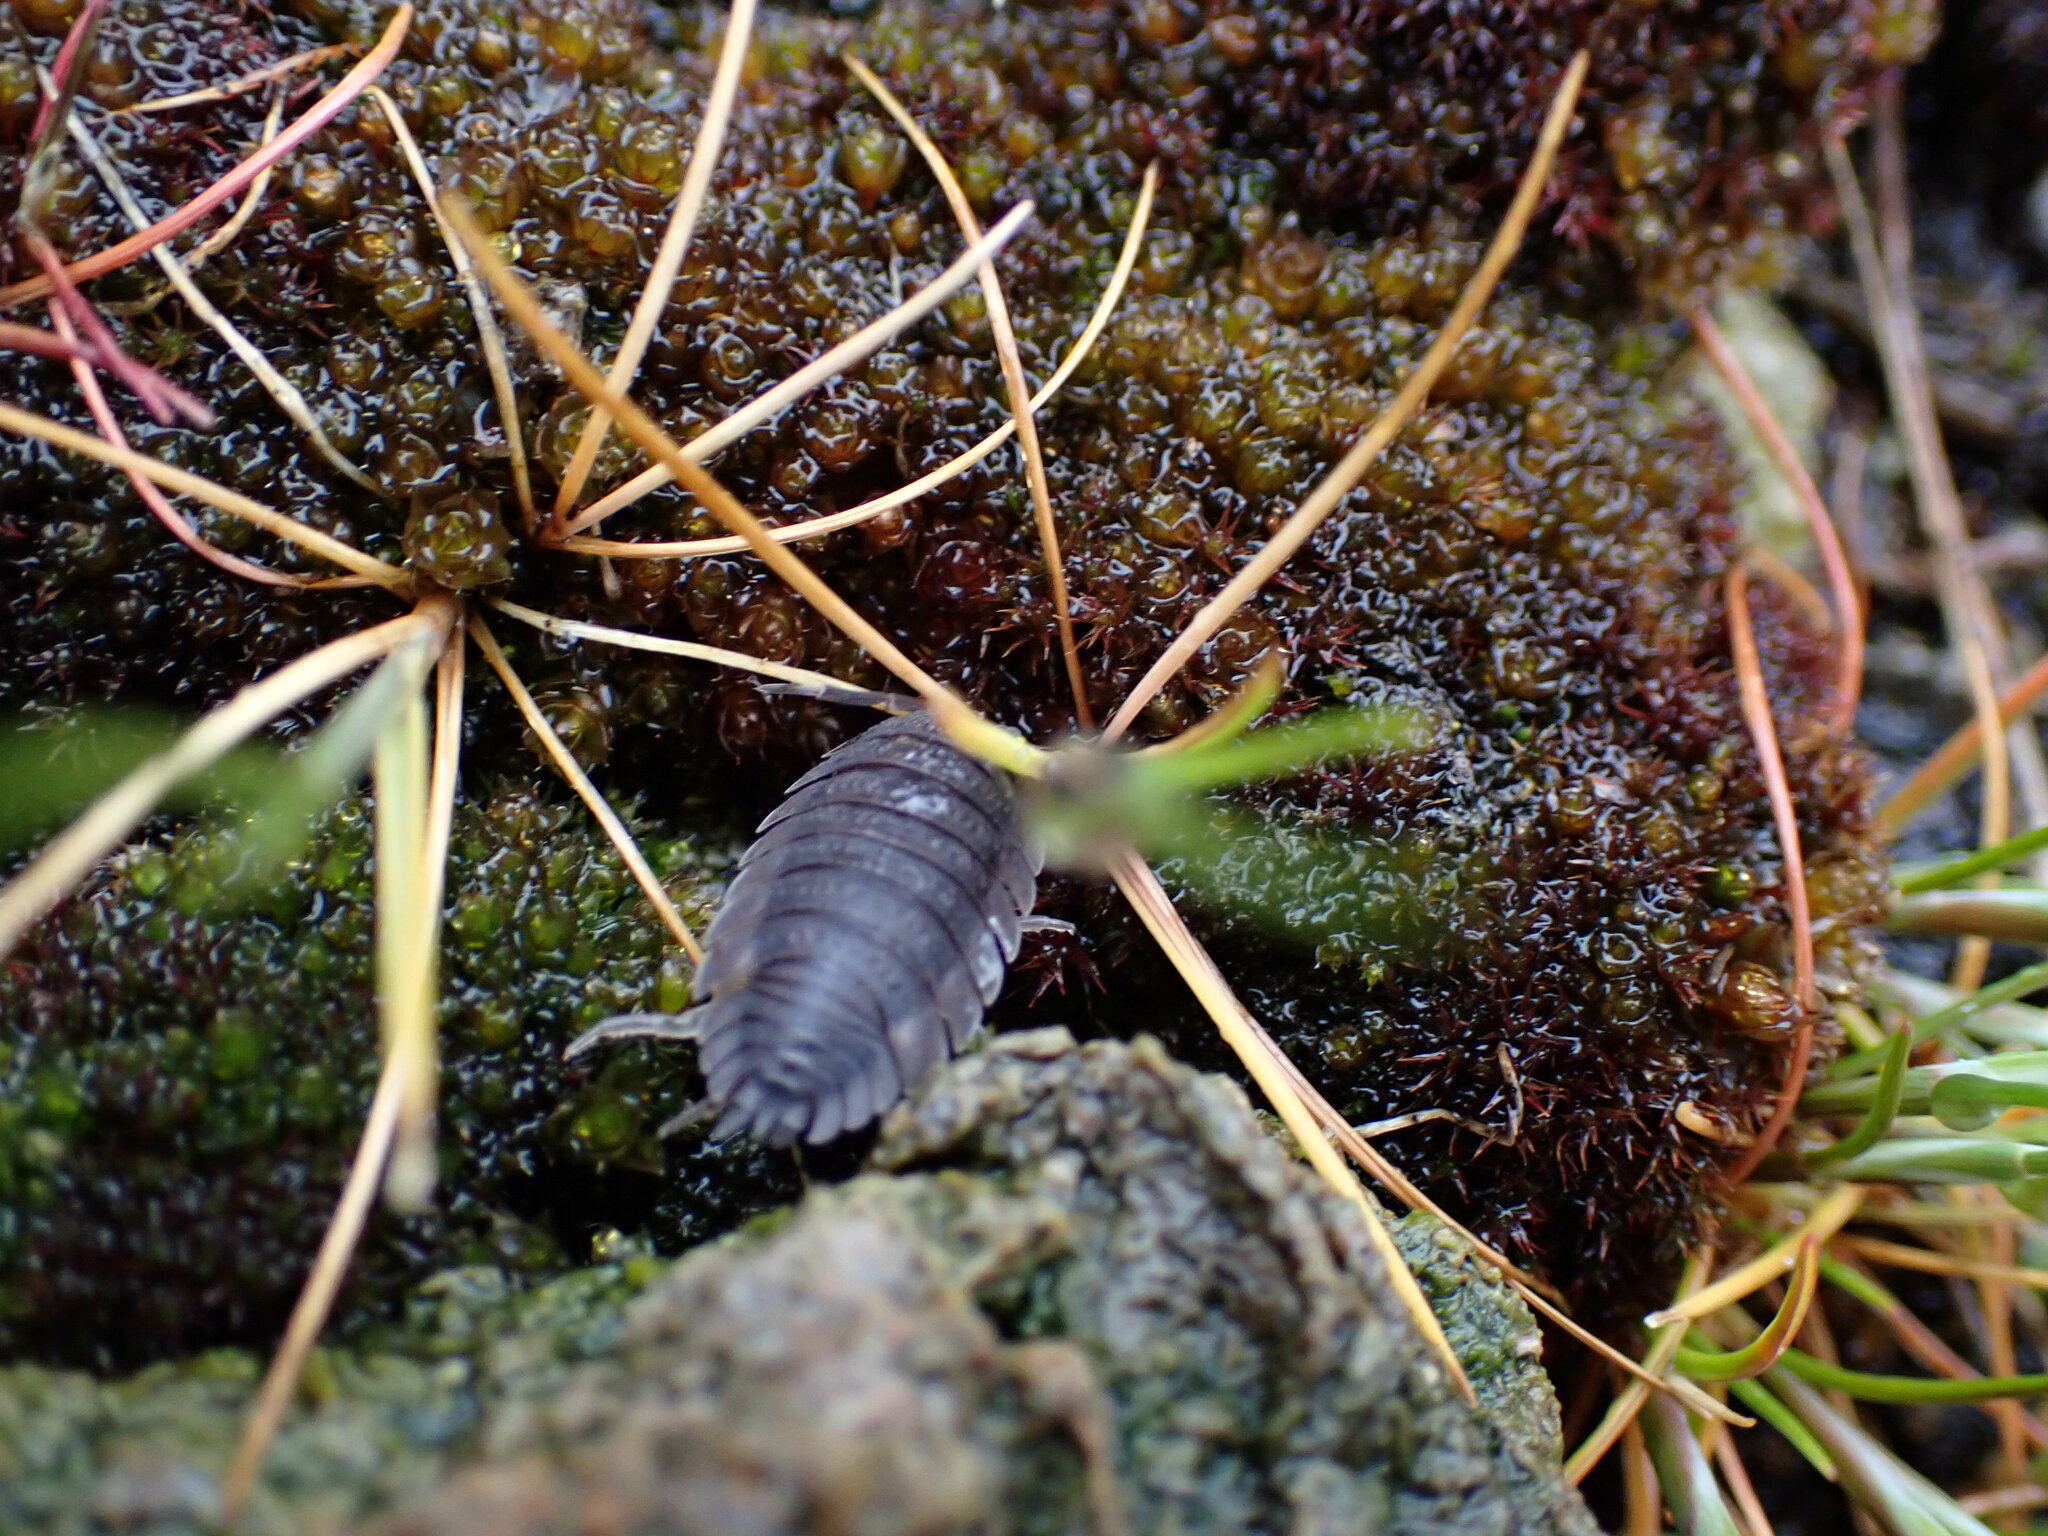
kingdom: Animalia
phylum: Arthropoda
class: Malacostraca
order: Isopoda
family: Porcellionidae
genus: Porcellio
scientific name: Porcellio scaber
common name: Common rough woodlouse
